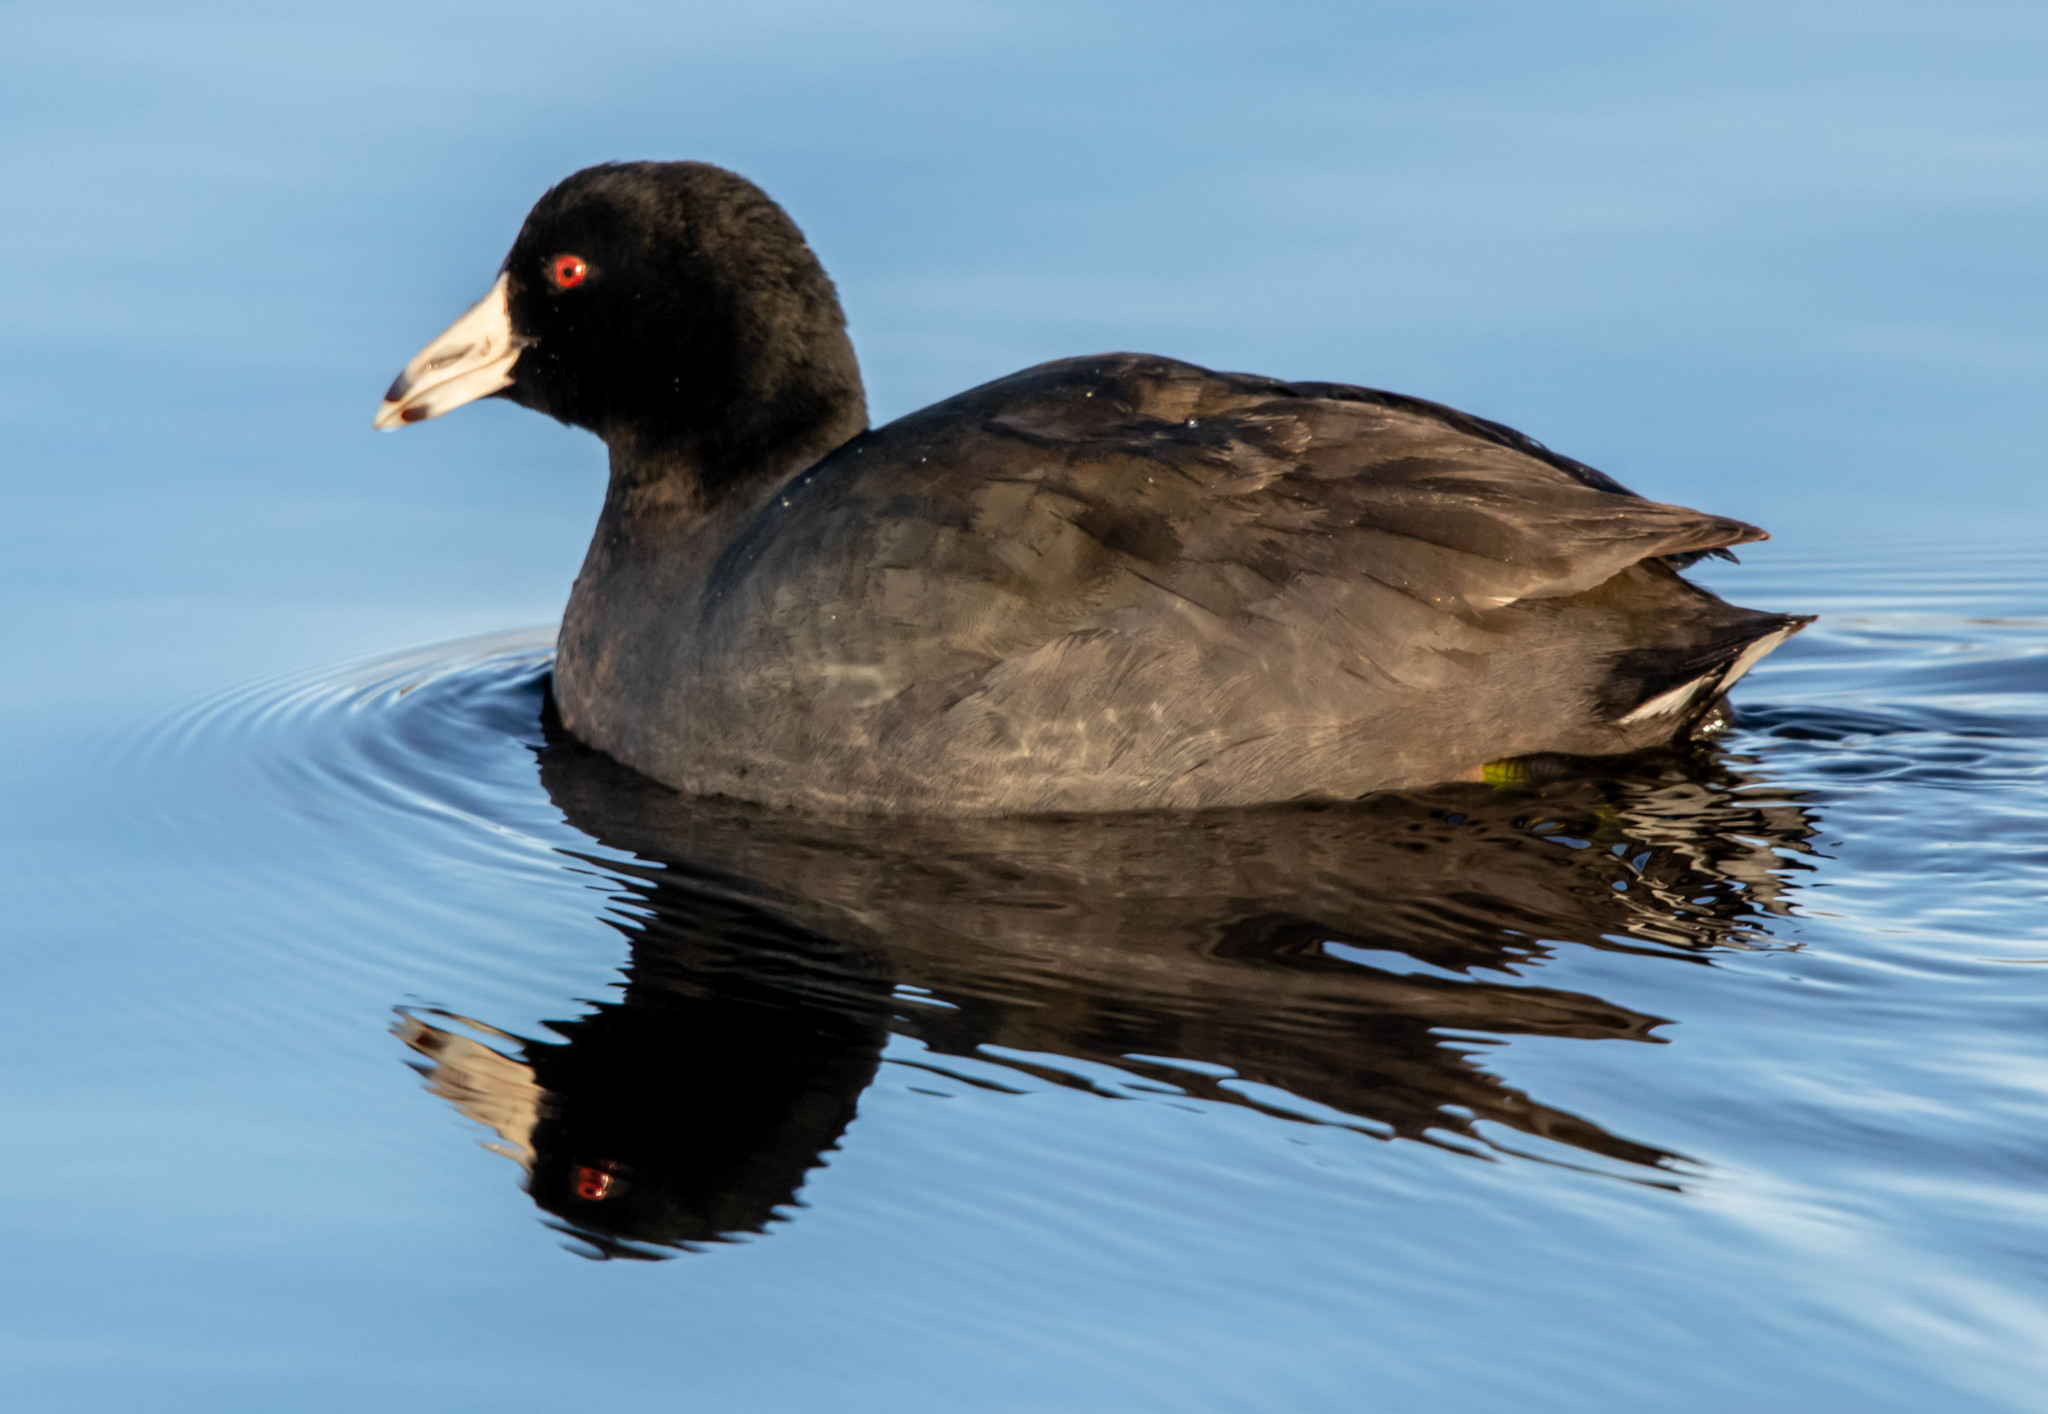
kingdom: Animalia
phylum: Chordata
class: Aves
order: Gruiformes
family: Rallidae
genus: Fulica
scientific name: Fulica americana
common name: American coot
